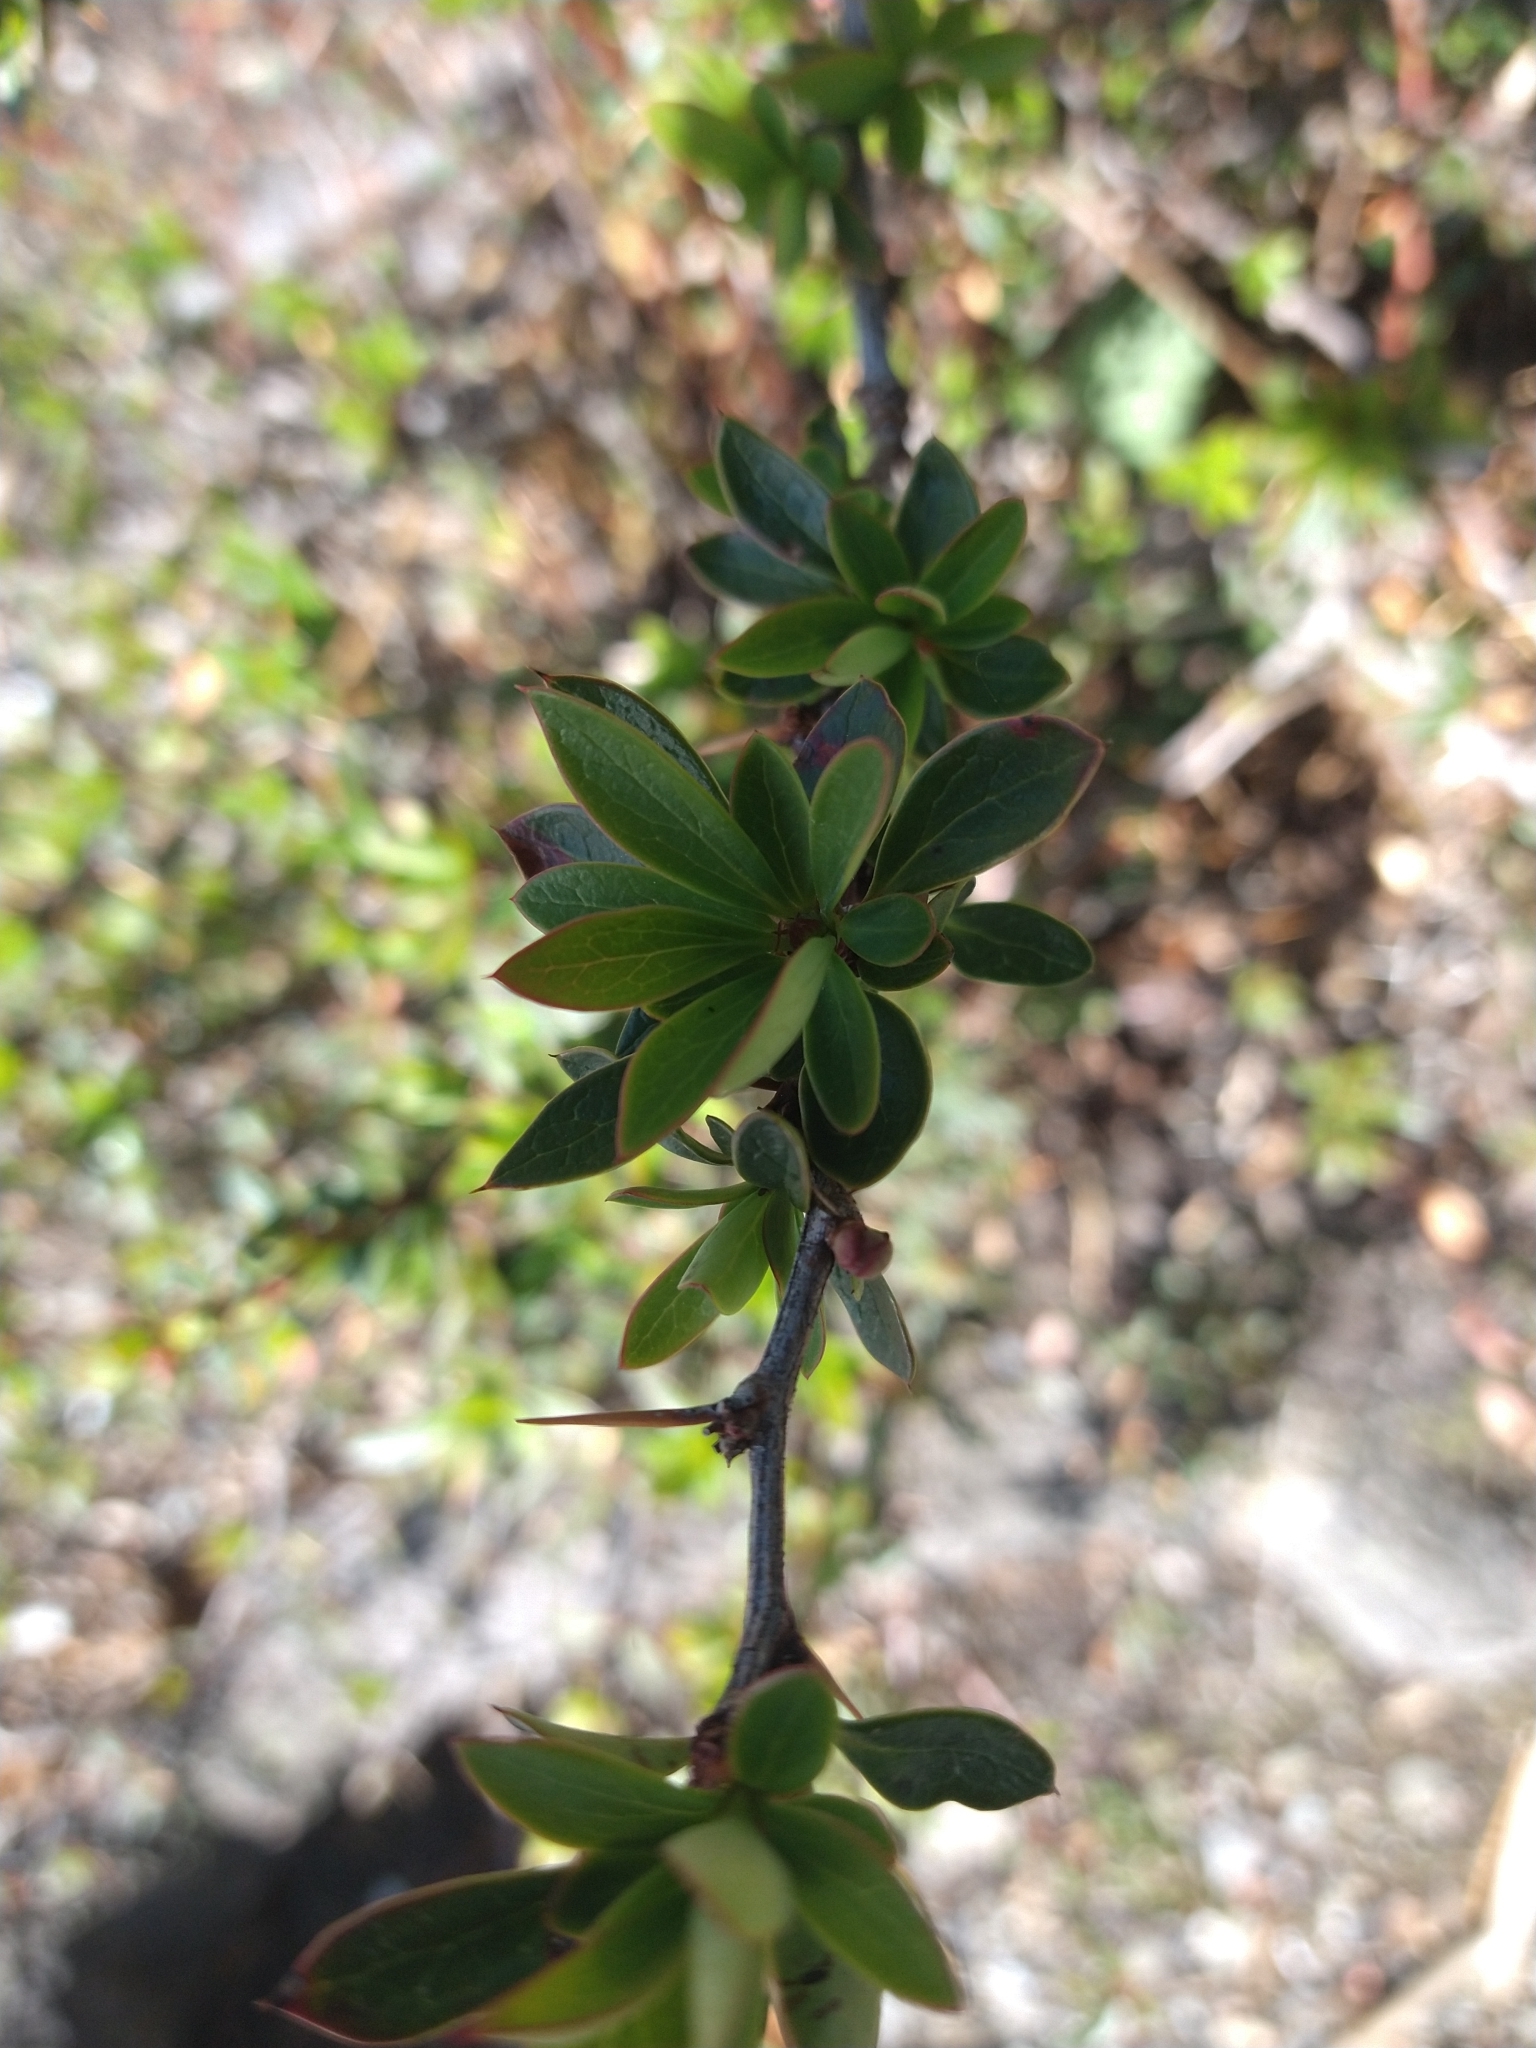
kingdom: Plantae
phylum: Tracheophyta
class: Magnoliopsida
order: Ranunculales
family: Berberidaceae
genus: Berberis
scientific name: Berberis microphylla
